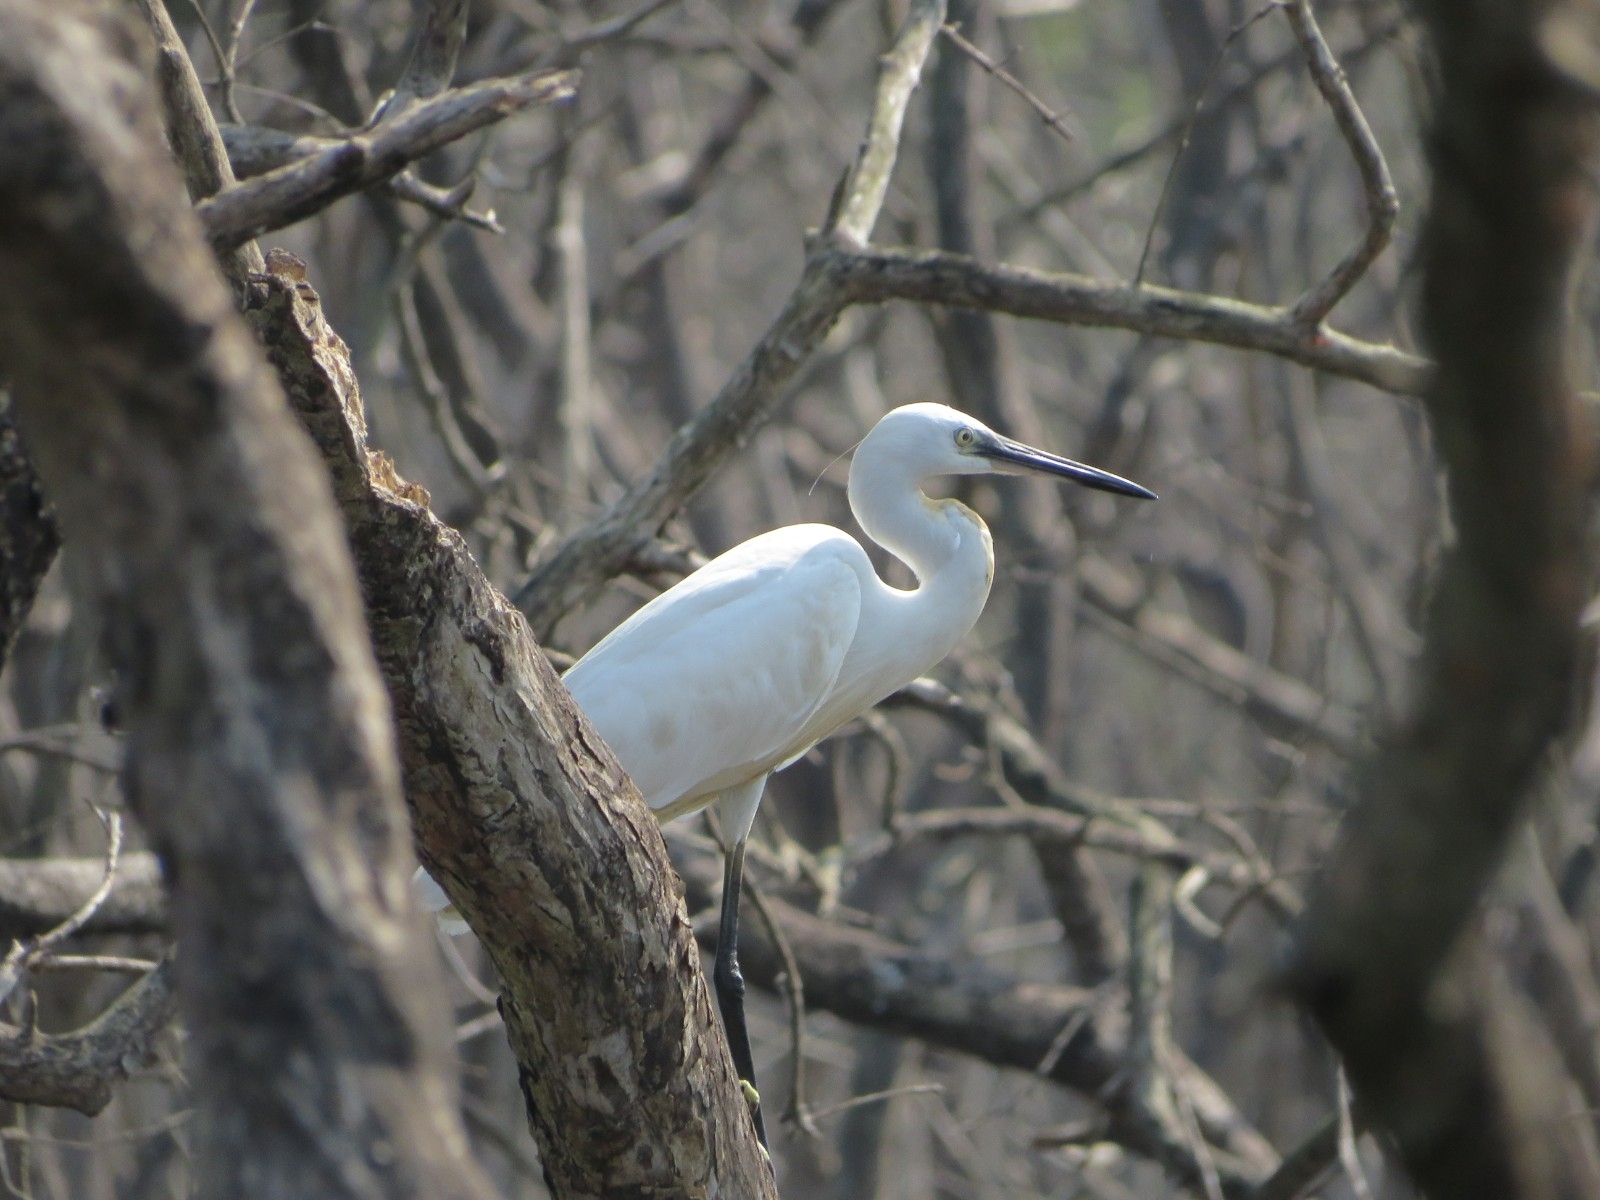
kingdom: Animalia
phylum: Chordata
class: Aves
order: Pelecaniformes
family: Ardeidae
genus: Egretta
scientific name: Egretta garzetta
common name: Little egret
